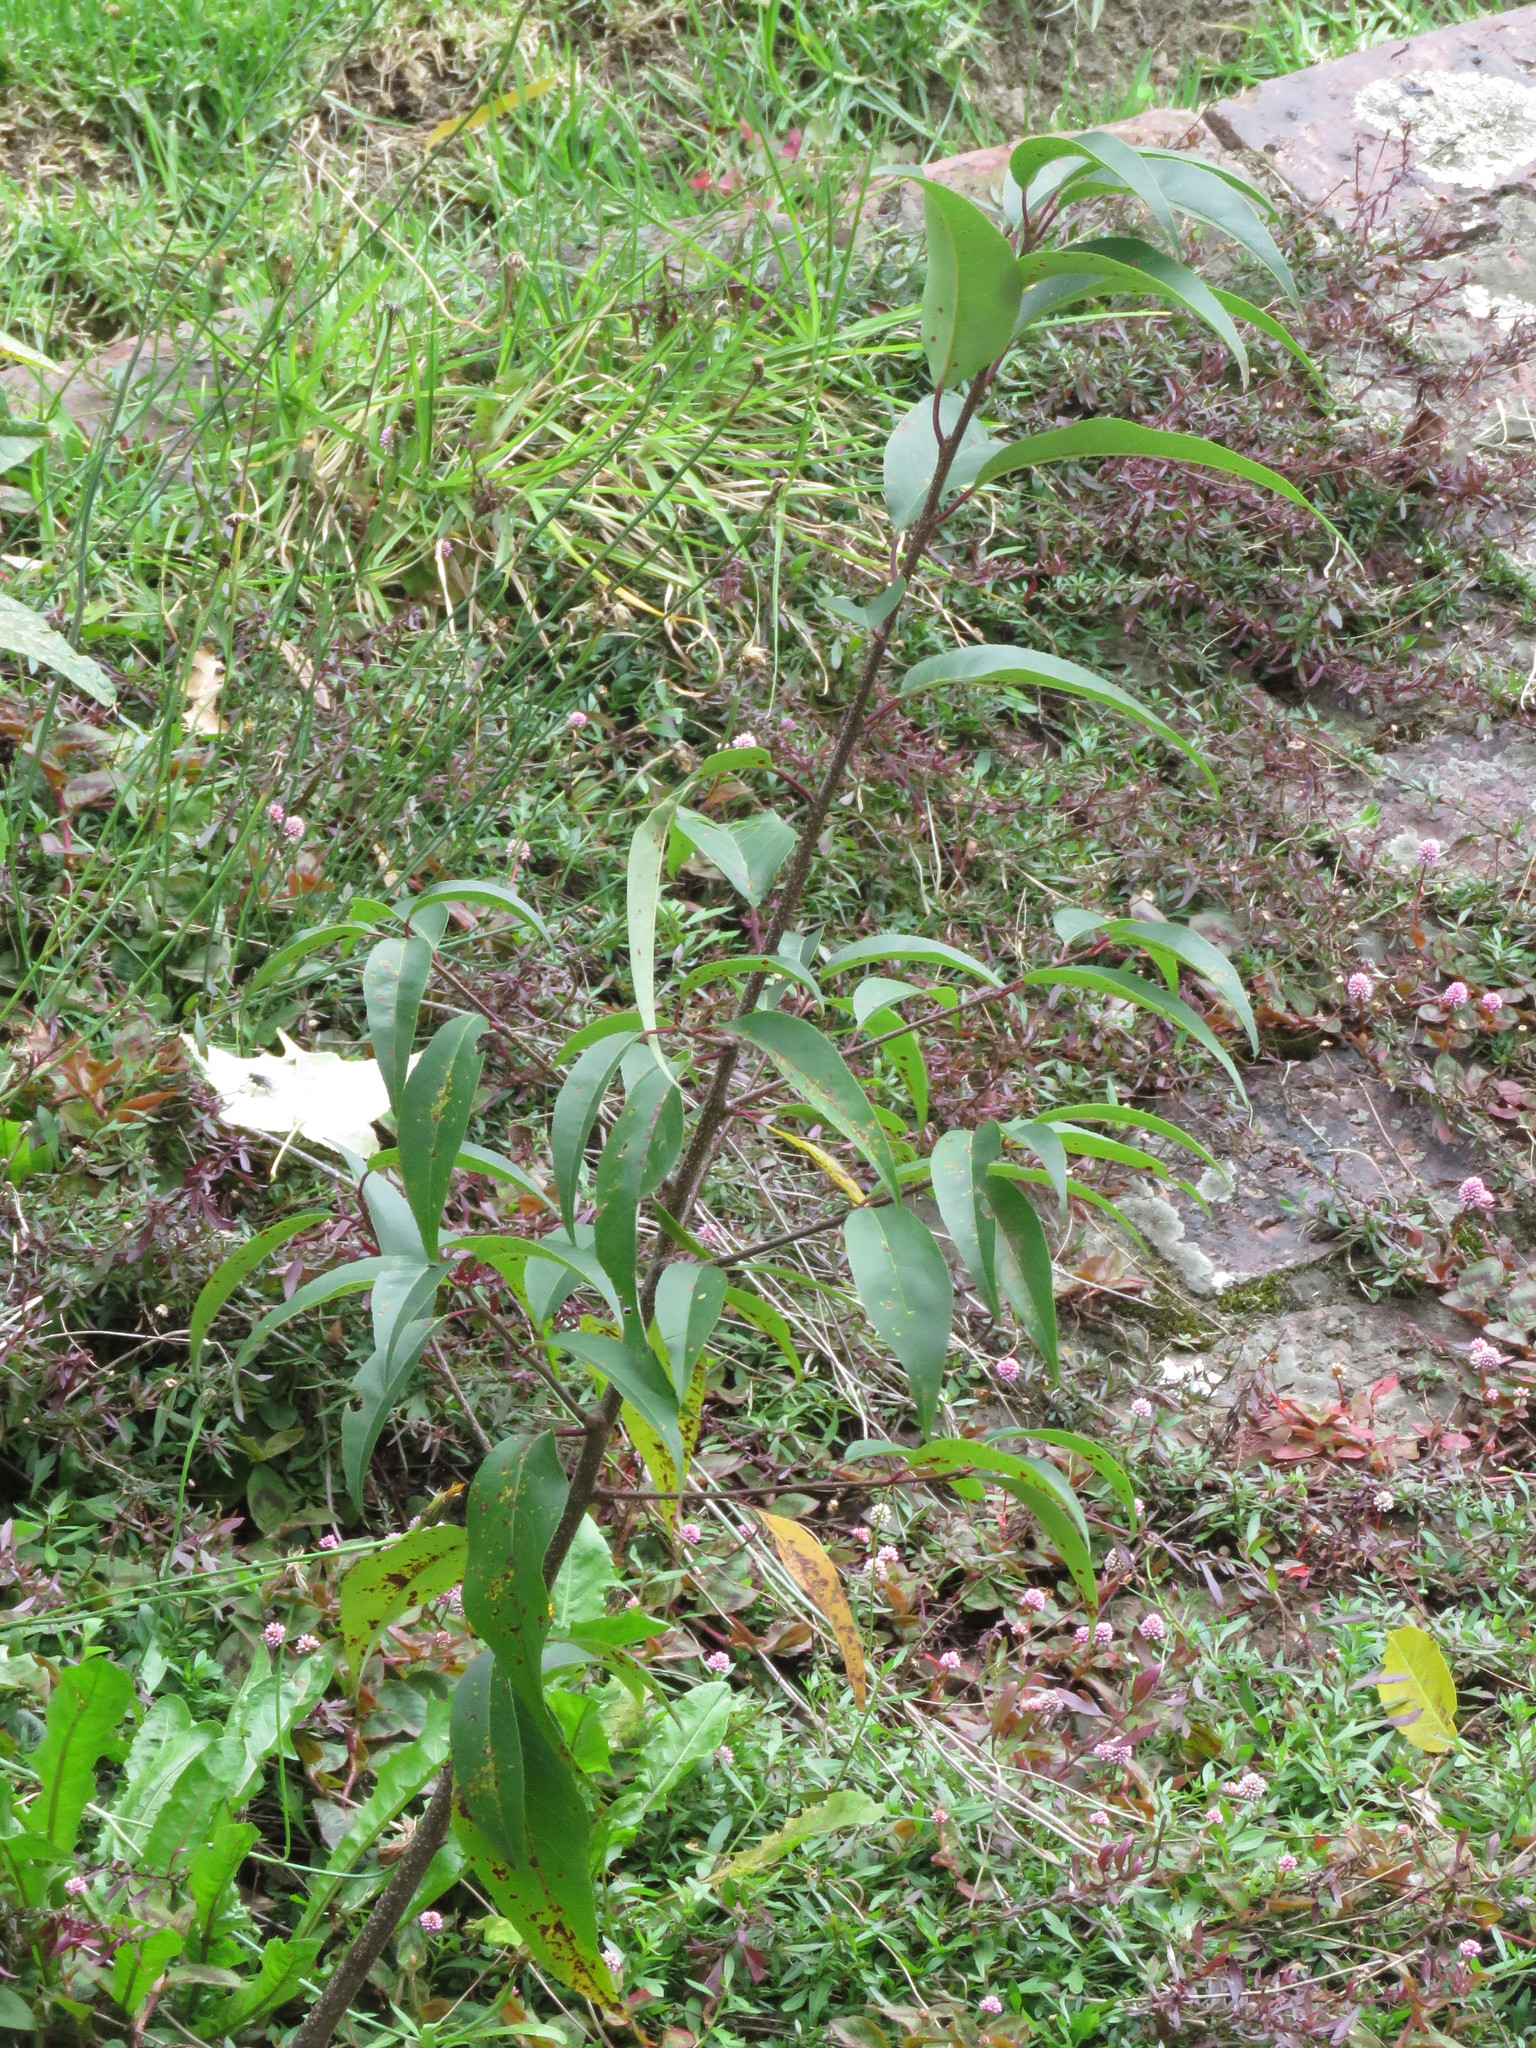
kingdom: Plantae
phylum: Tracheophyta
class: Magnoliopsida
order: Rosales
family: Rosaceae
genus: Prunus
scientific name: Prunus serotina
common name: Black cherry
